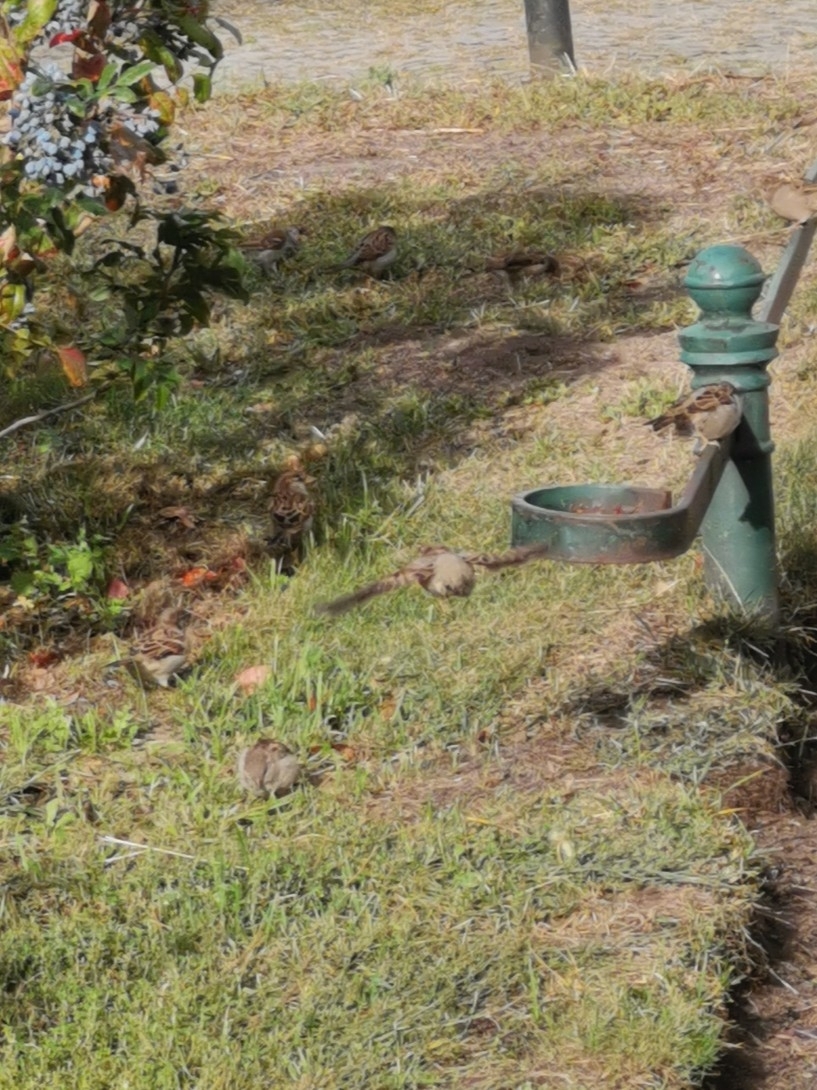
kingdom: Animalia
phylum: Chordata
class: Aves
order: Passeriformes
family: Passeridae
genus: Passer
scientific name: Passer domesticus
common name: House sparrow
